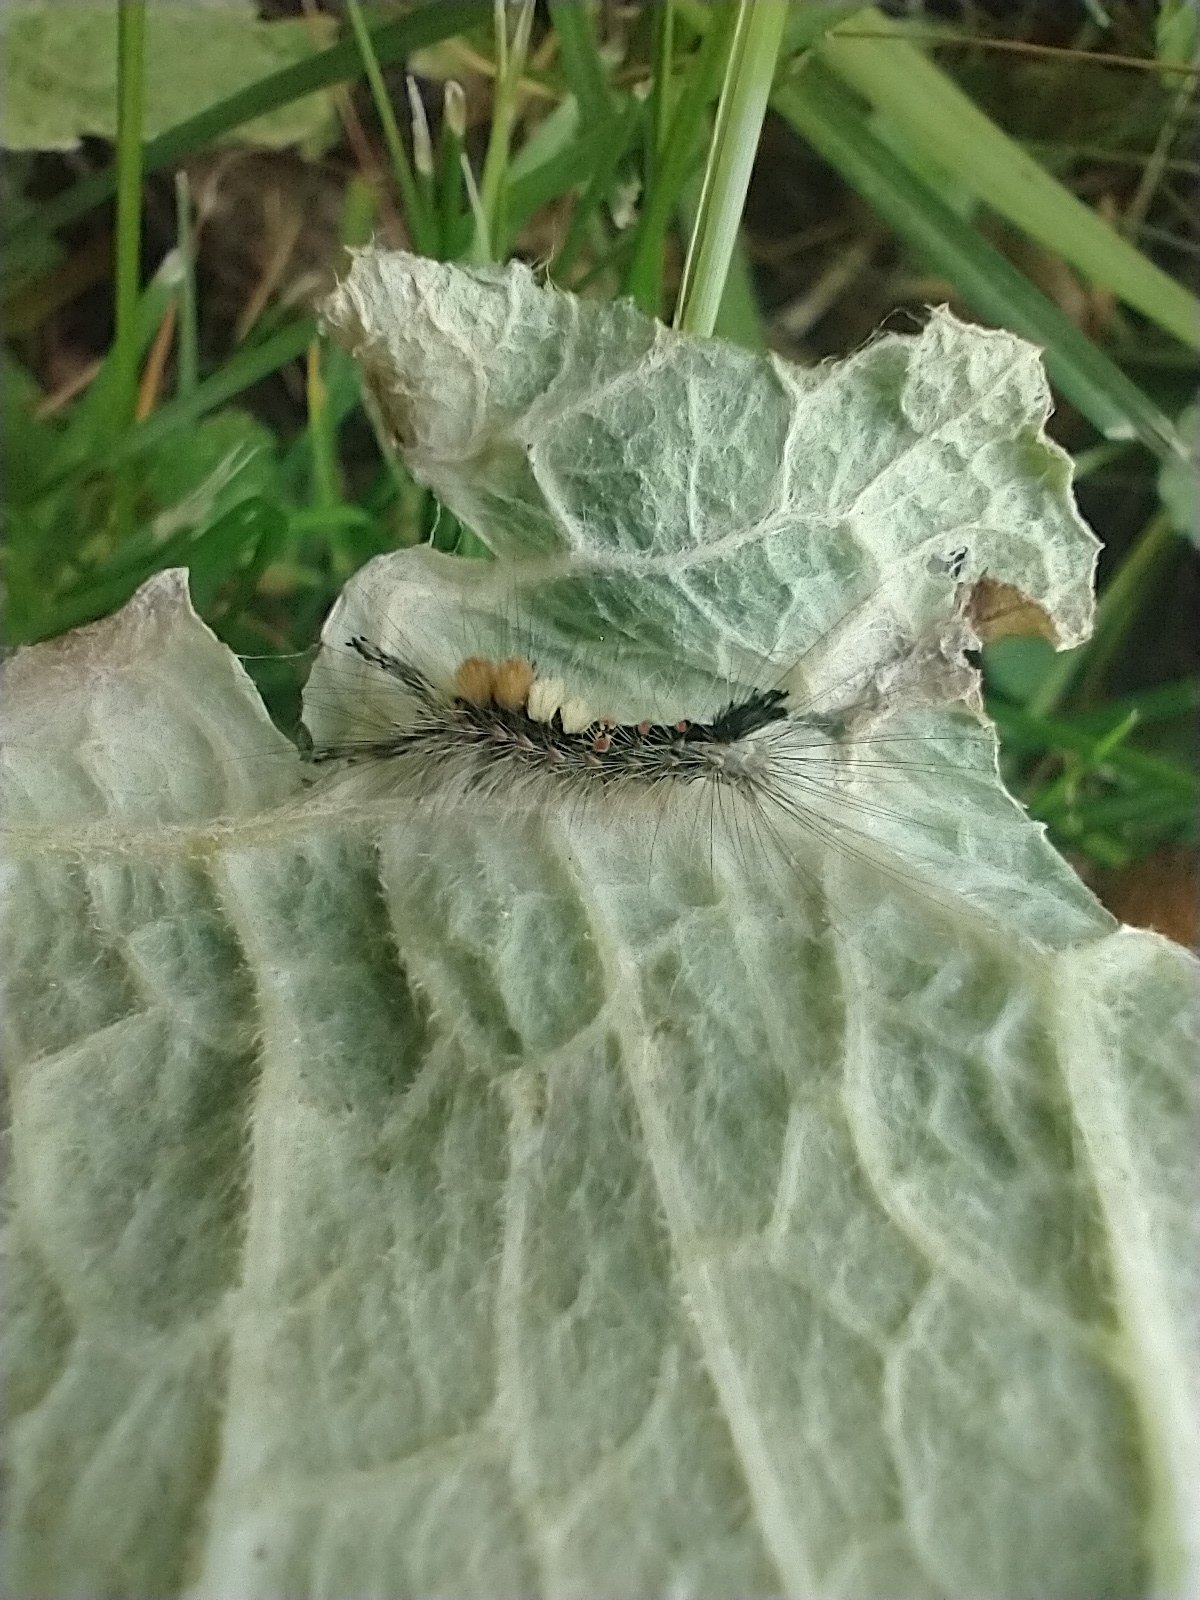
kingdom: Animalia
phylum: Arthropoda
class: Insecta
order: Lepidoptera
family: Erebidae
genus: Orgyia
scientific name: Orgyia antiqua
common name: Vapourer
